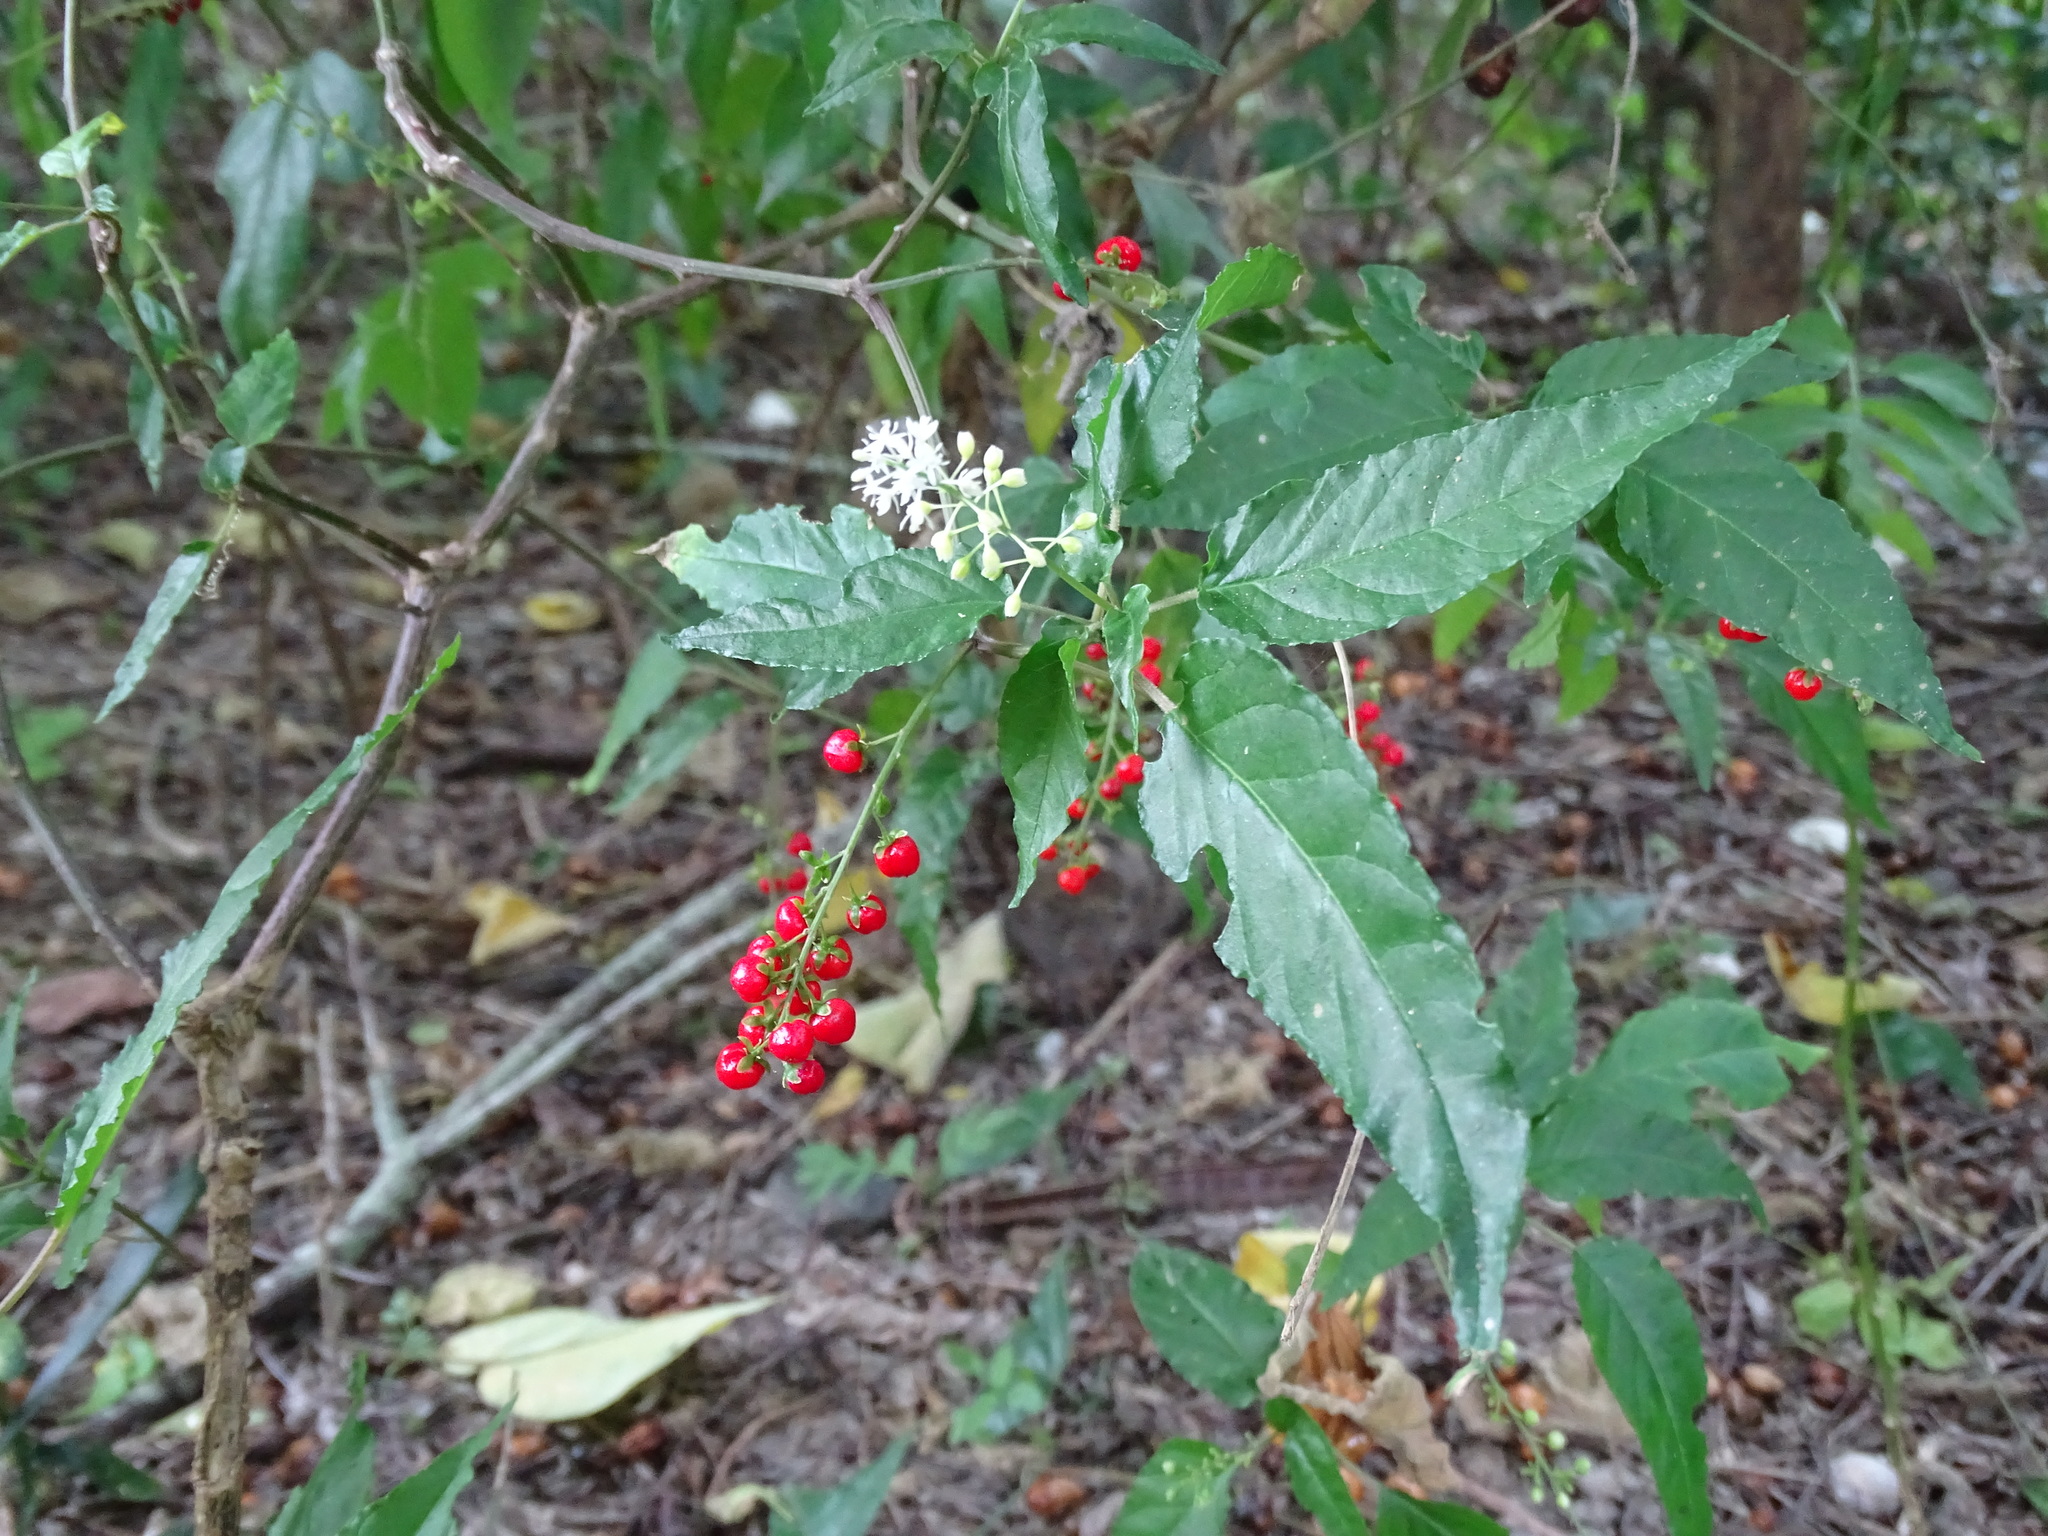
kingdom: Plantae
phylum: Tracheophyta
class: Magnoliopsida
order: Caryophyllales
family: Phytolaccaceae
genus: Rivina
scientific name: Rivina humilis
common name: Rougeplant
